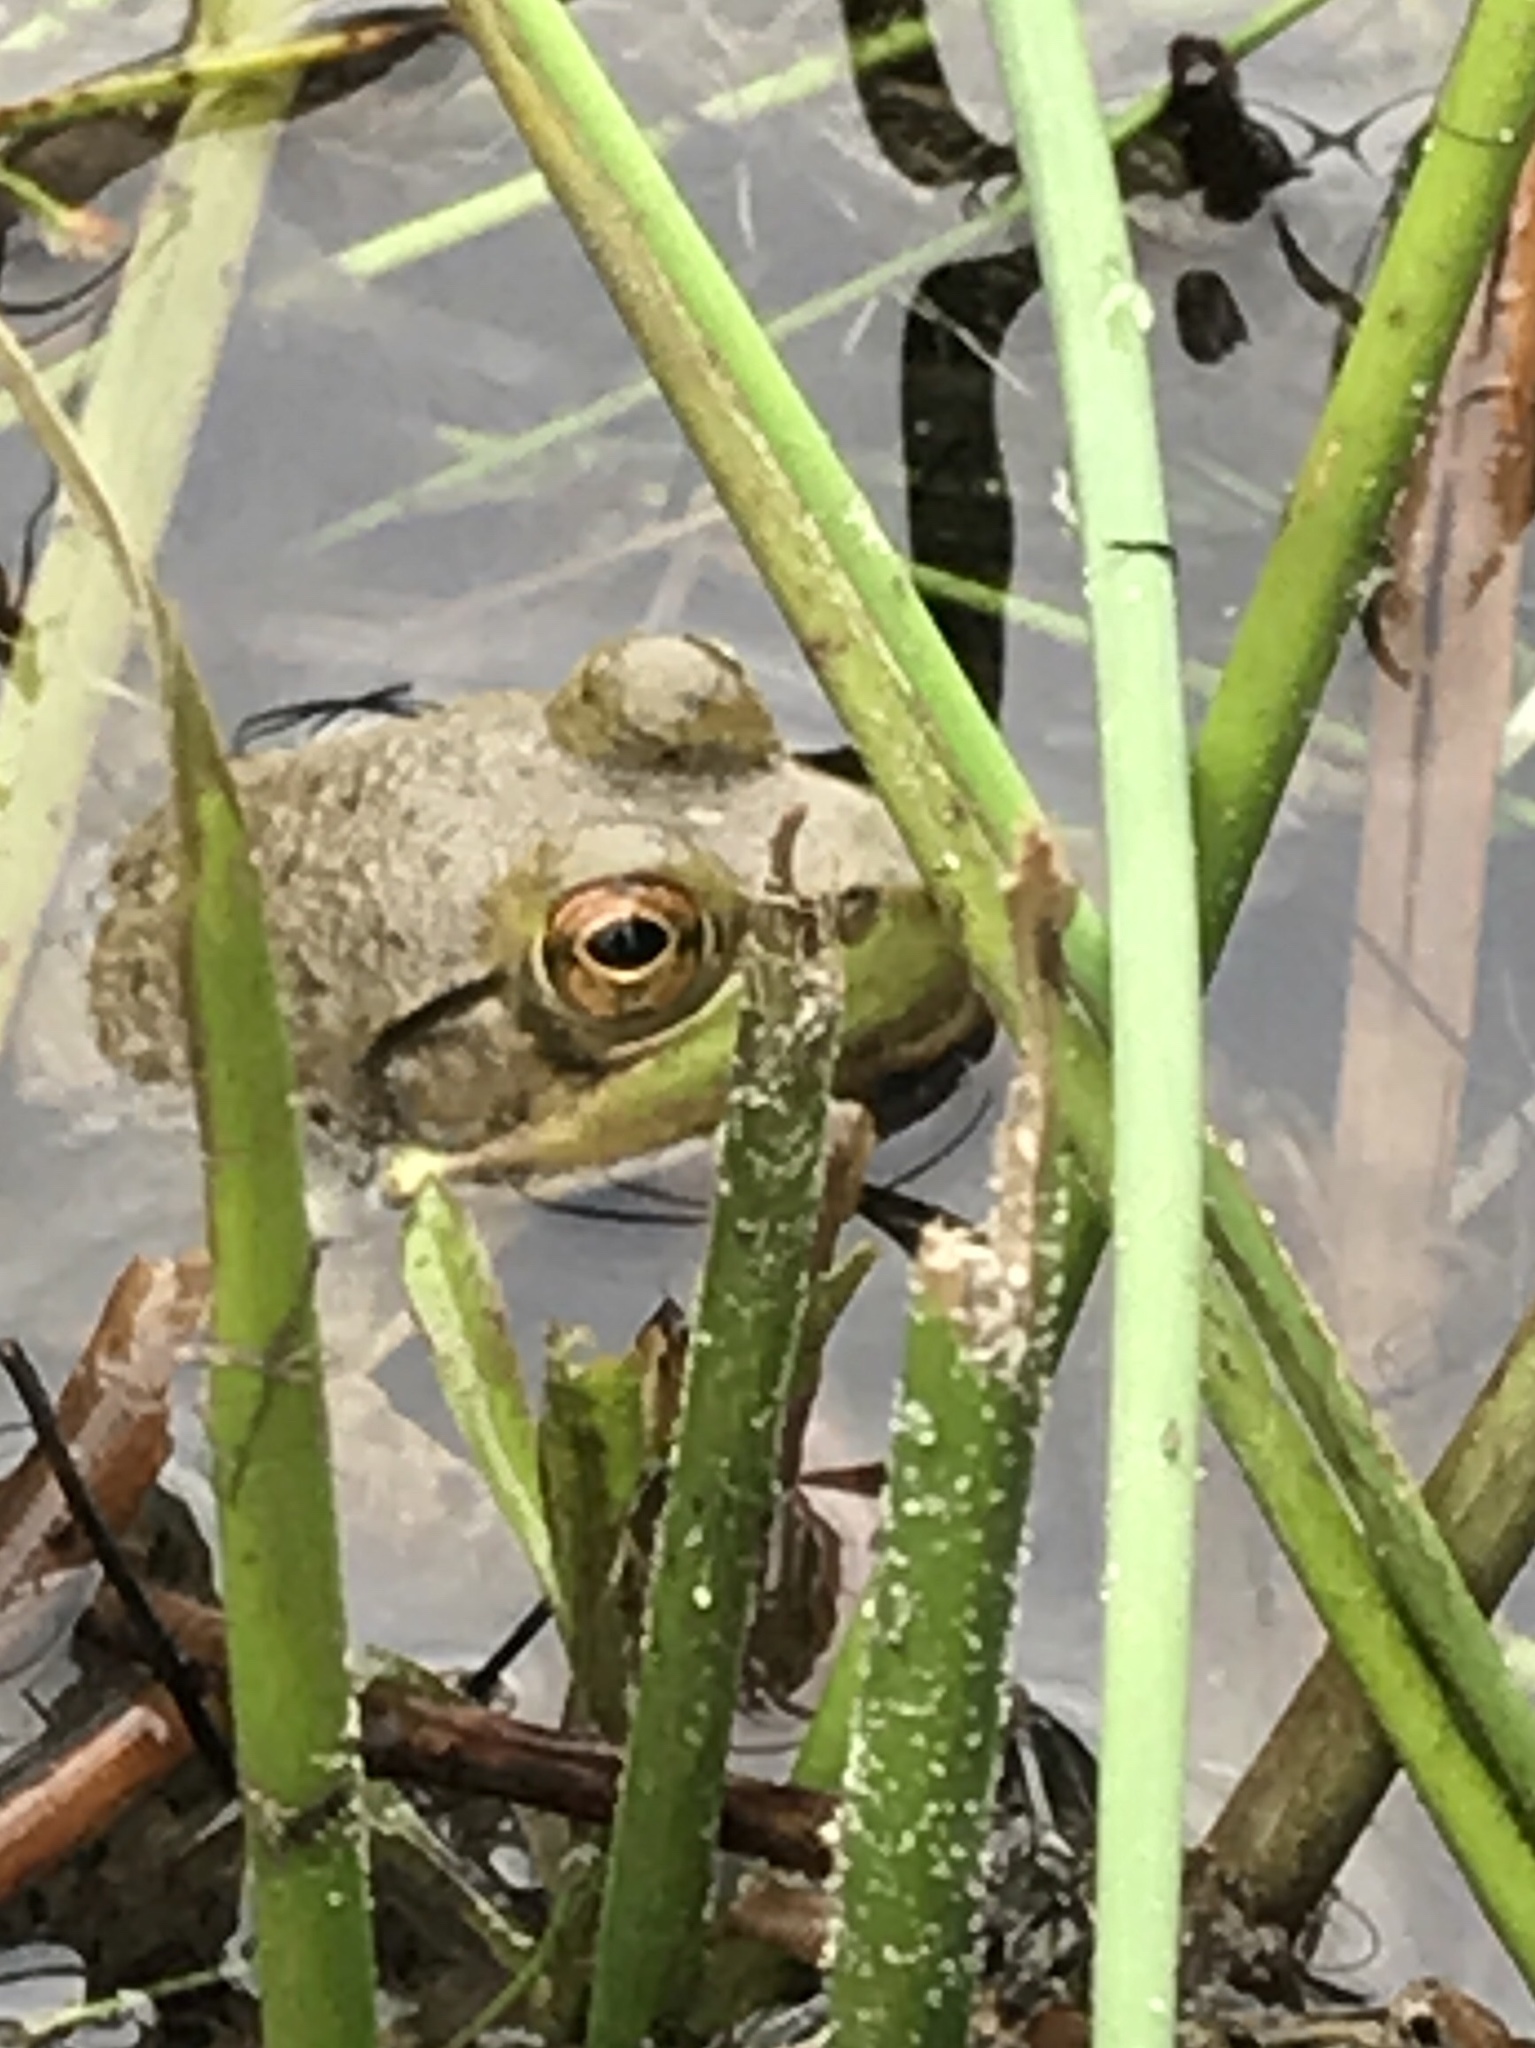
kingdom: Animalia
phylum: Chordata
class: Amphibia
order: Anura
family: Ranidae
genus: Lithobates
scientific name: Lithobates catesbeianus
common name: American bullfrog
